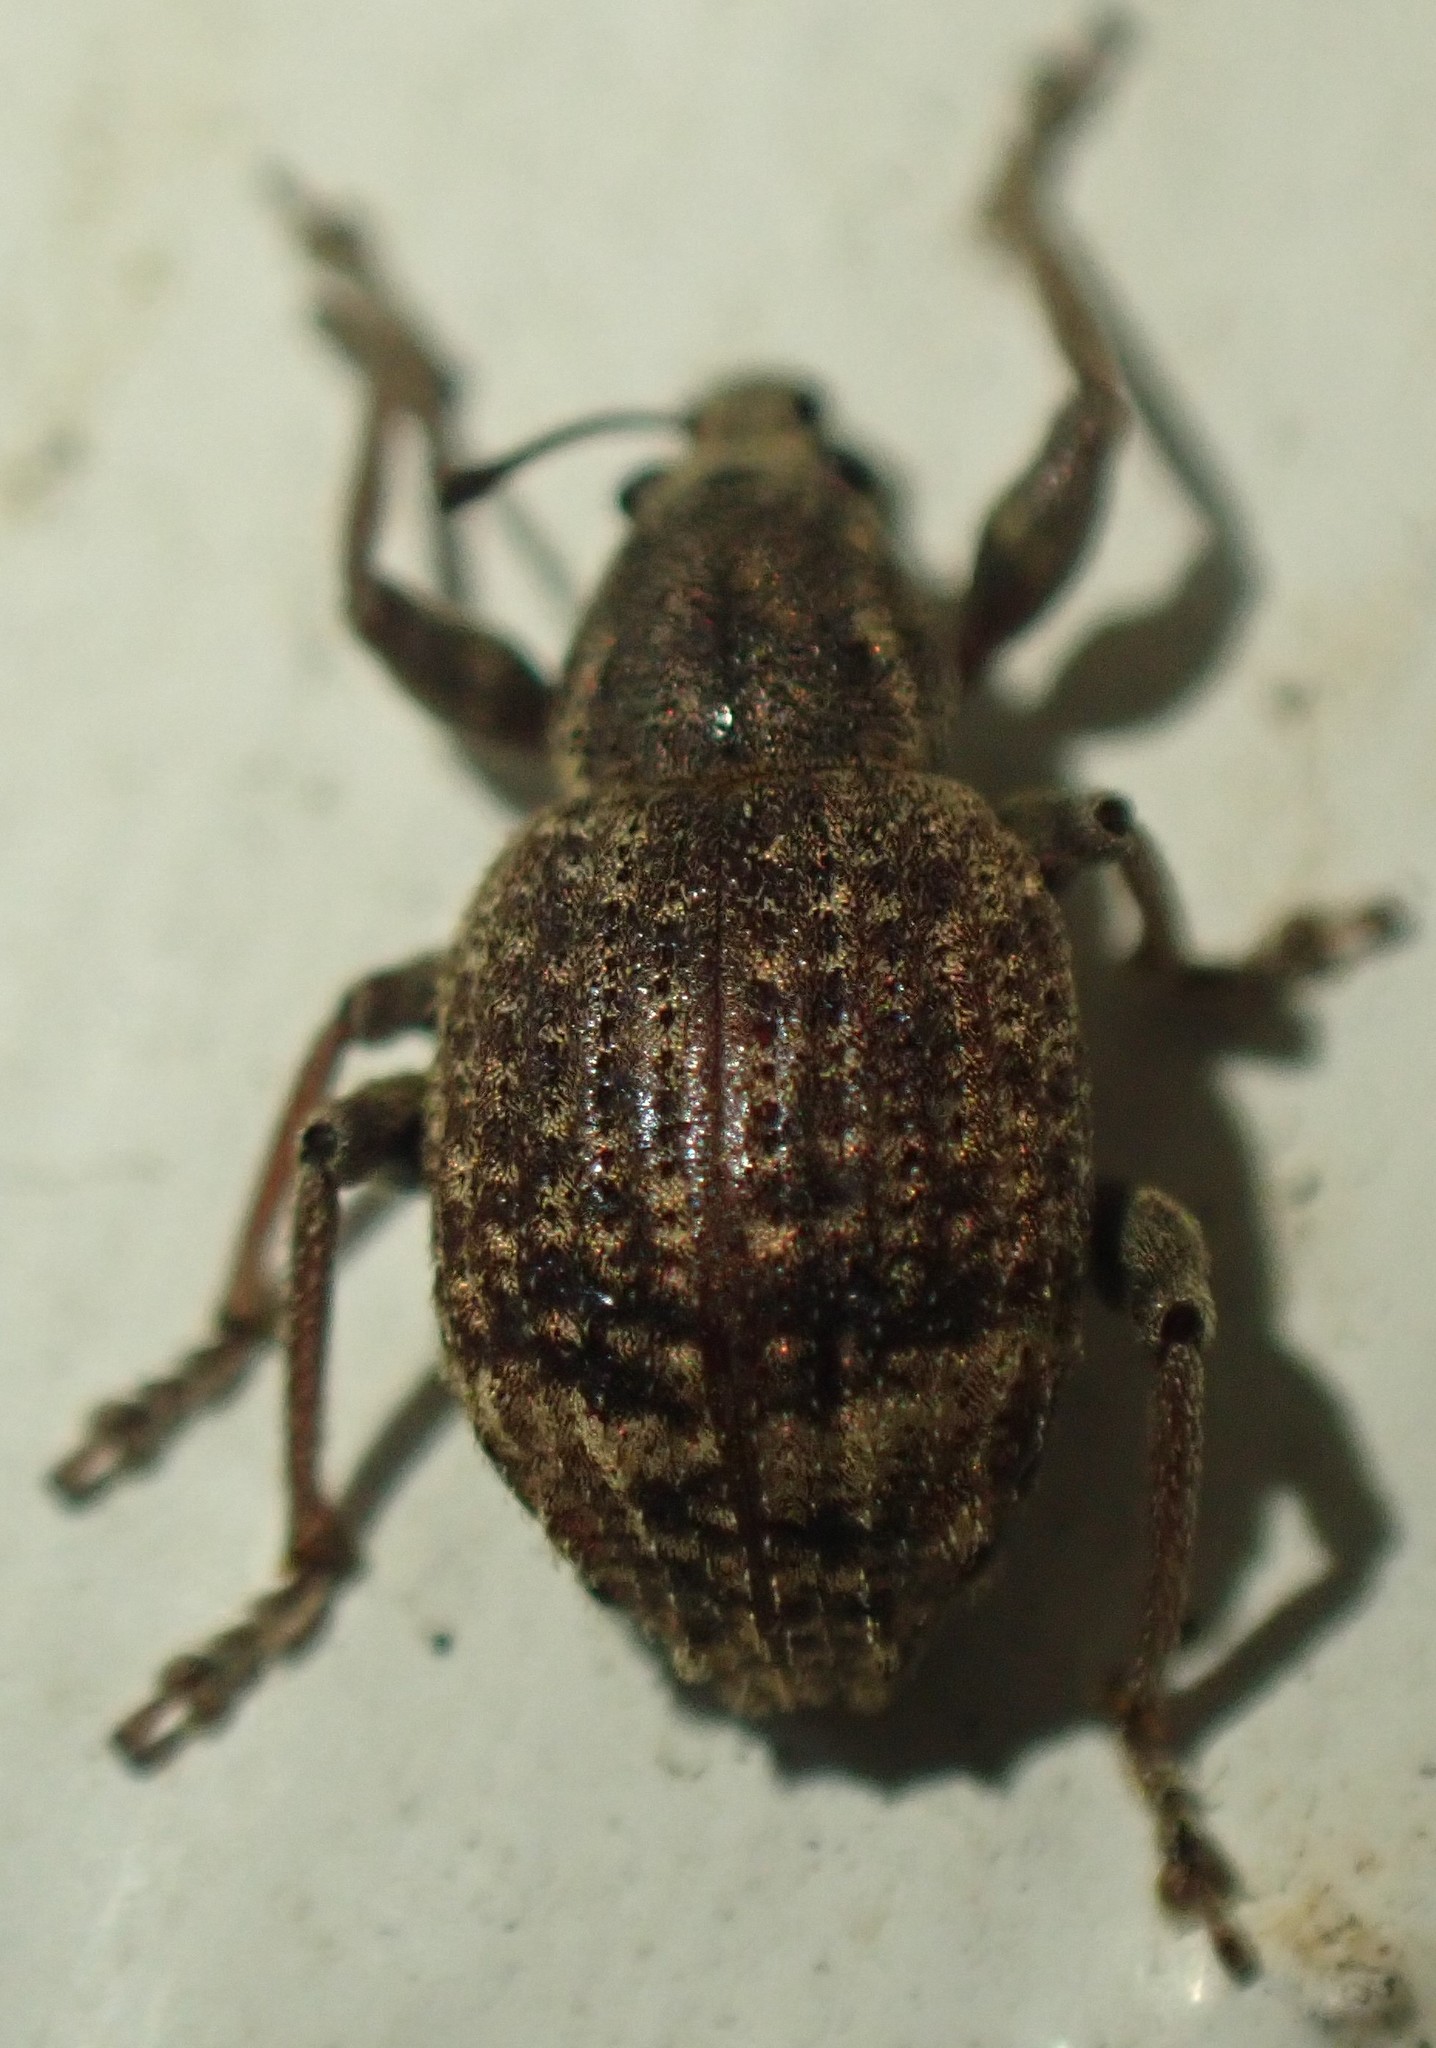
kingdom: Animalia
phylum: Arthropoda
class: Insecta
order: Coleoptera
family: Curculionidae
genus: Phlyctinus
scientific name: Phlyctinus callosus
